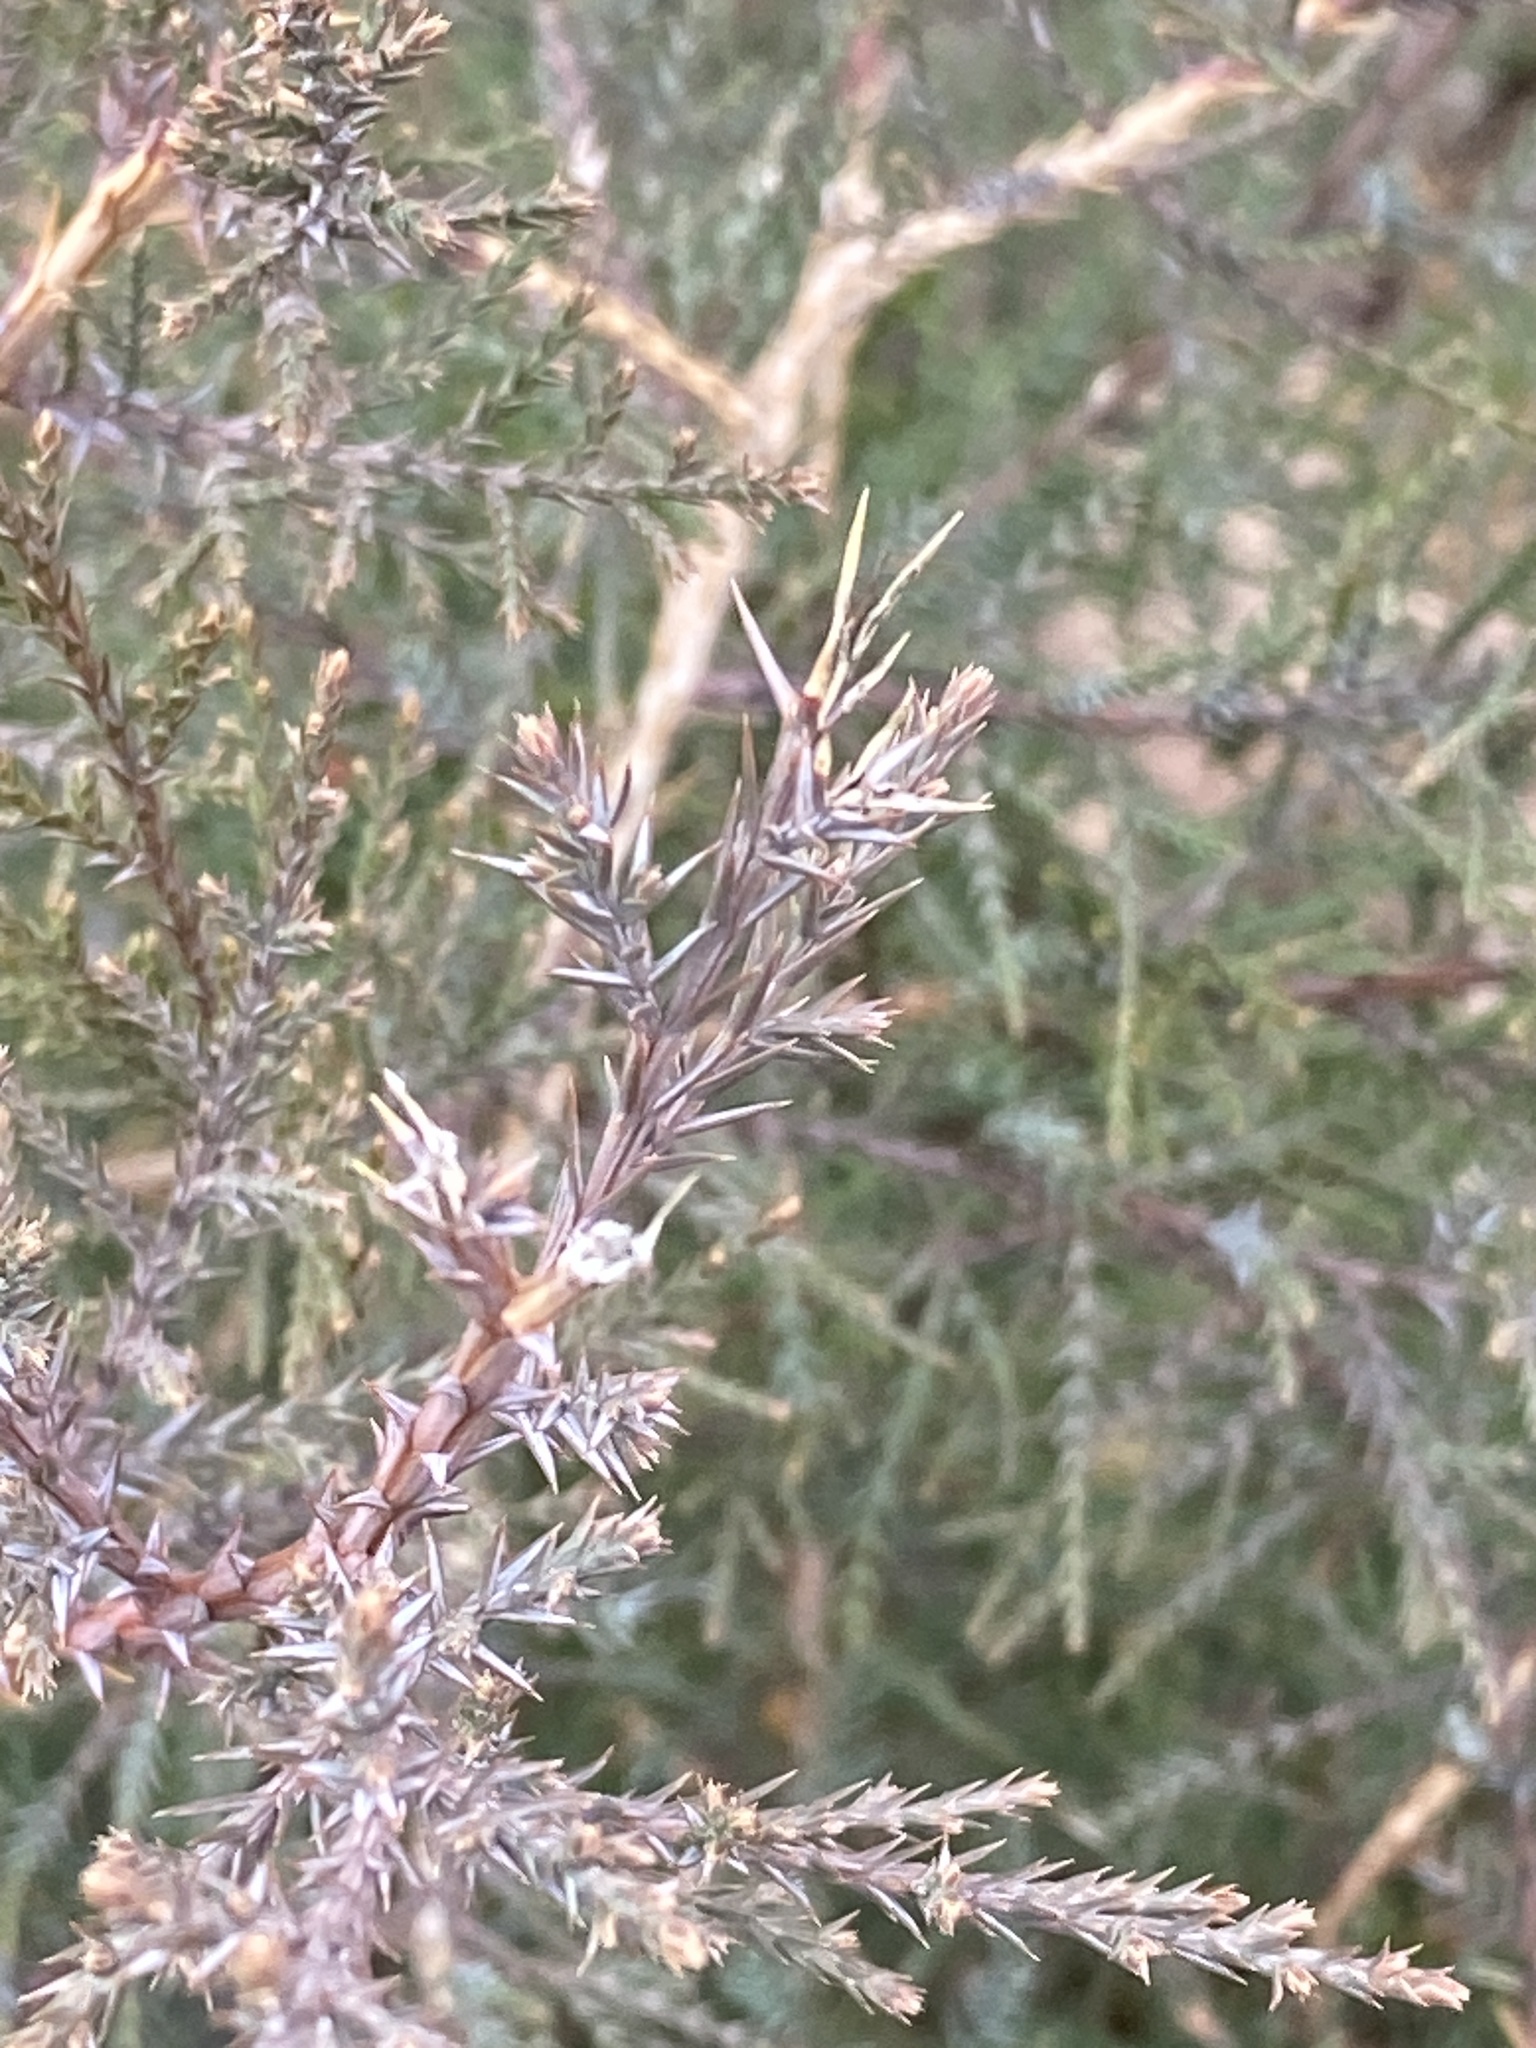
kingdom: Plantae
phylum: Tracheophyta
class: Pinopsida
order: Pinales
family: Cupressaceae
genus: Juniperus
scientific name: Juniperus virginiana
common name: Red juniper
